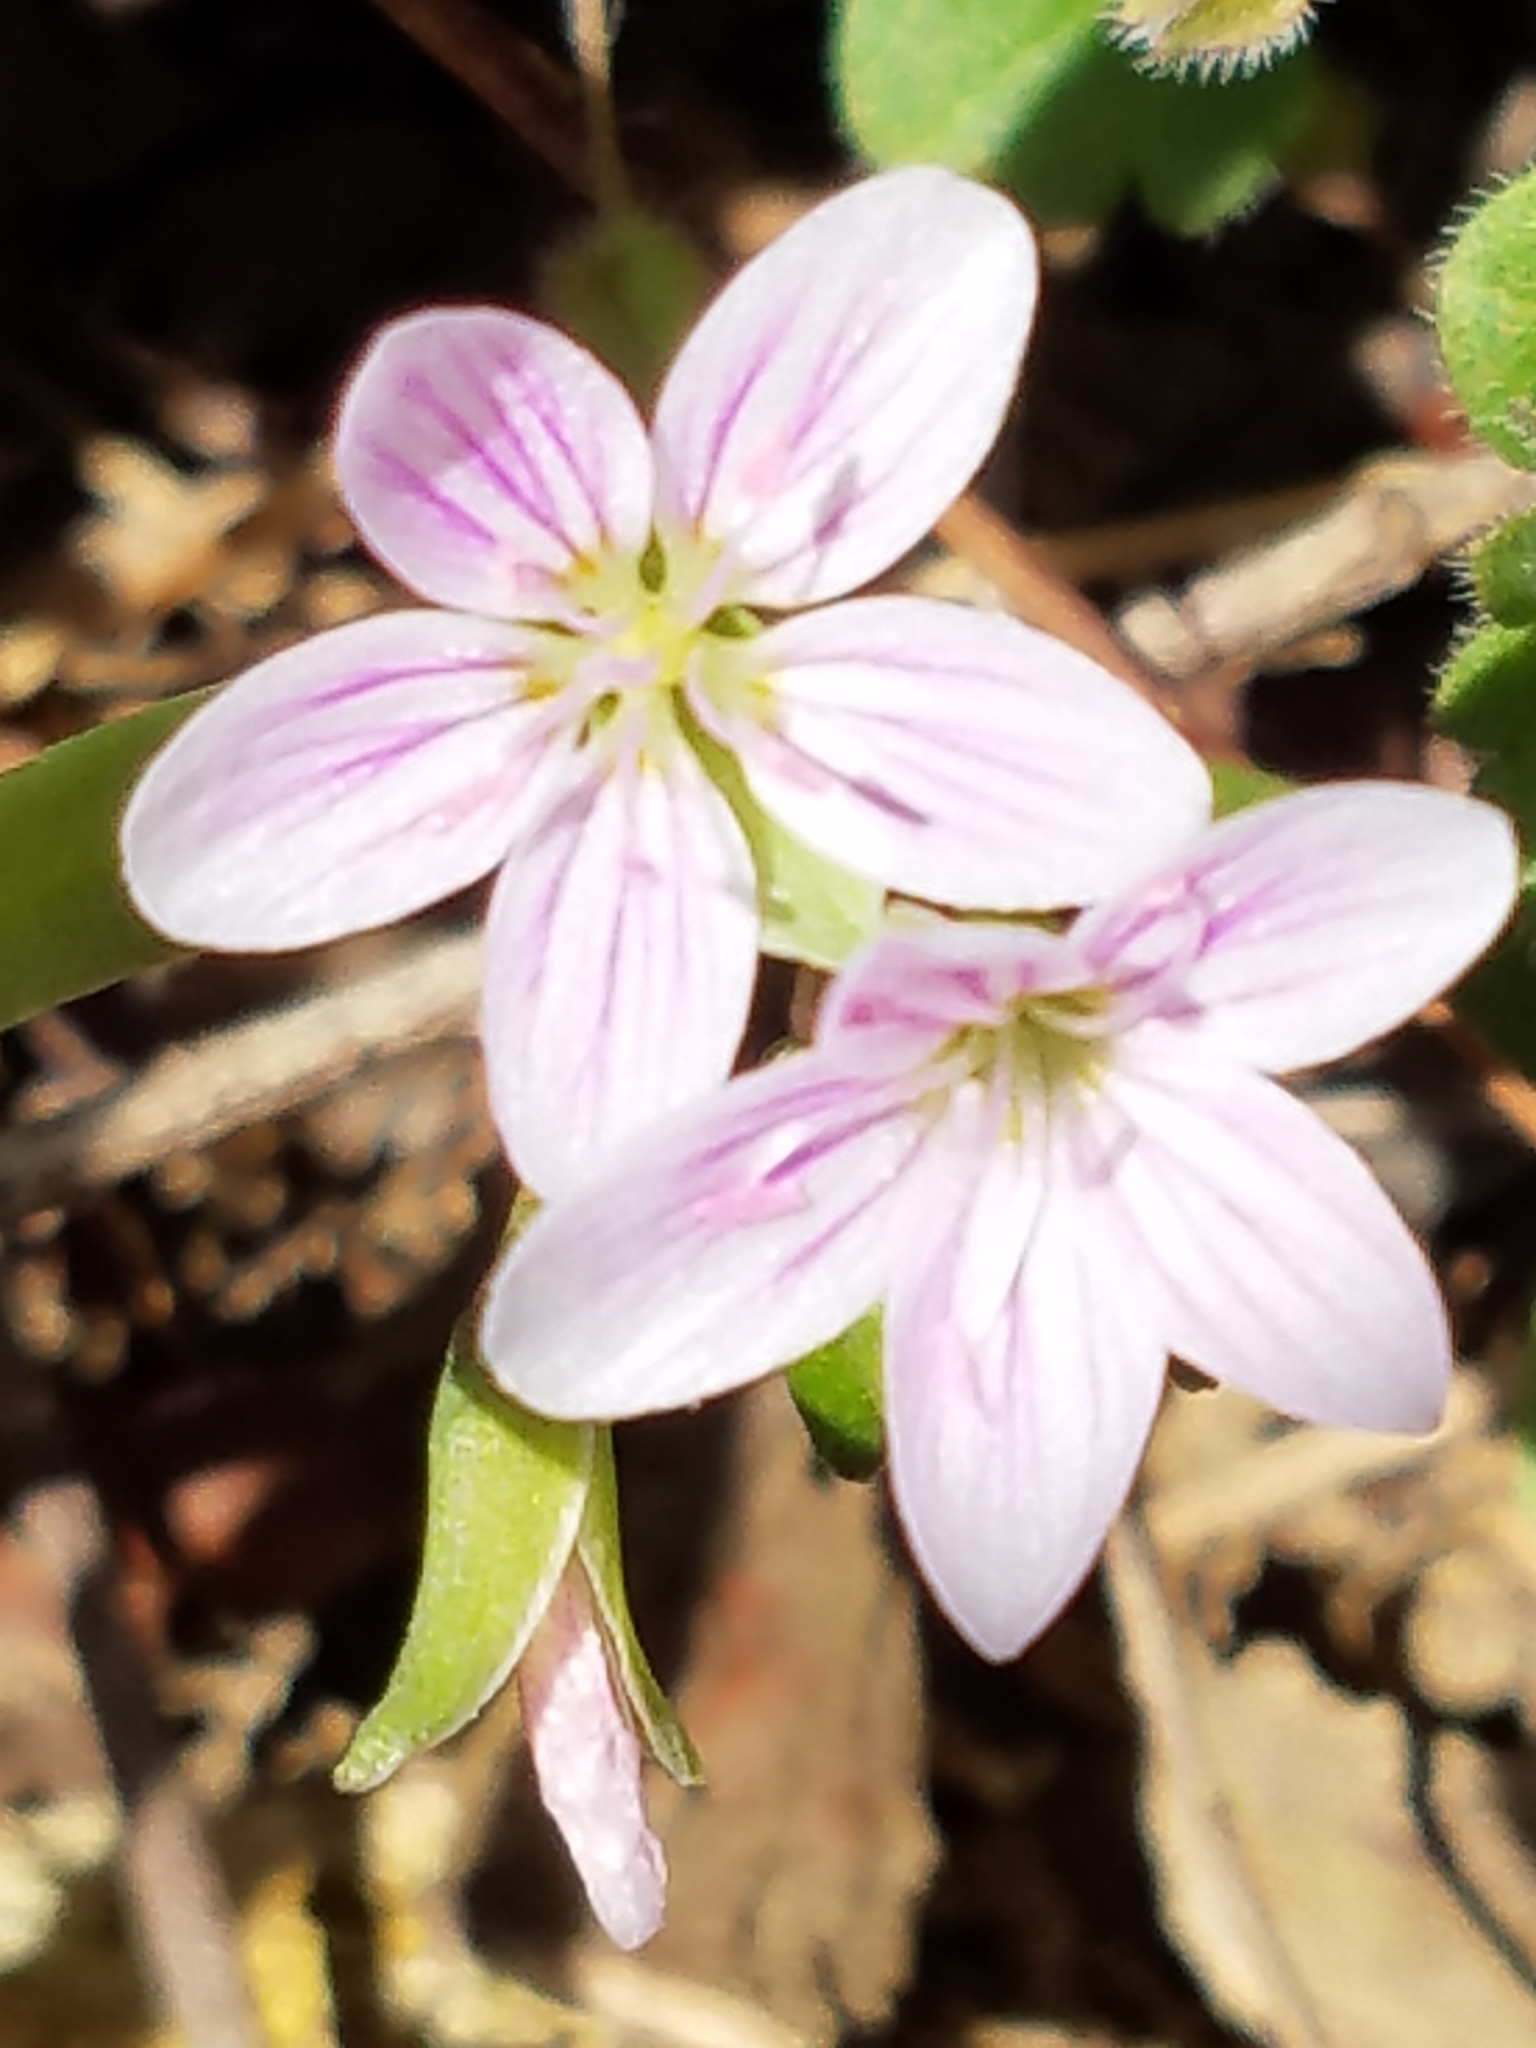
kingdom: Plantae
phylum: Tracheophyta
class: Magnoliopsida
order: Caryophyllales
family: Montiaceae
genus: Claytonia
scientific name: Claytonia virginica
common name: Virginia springbeauty
